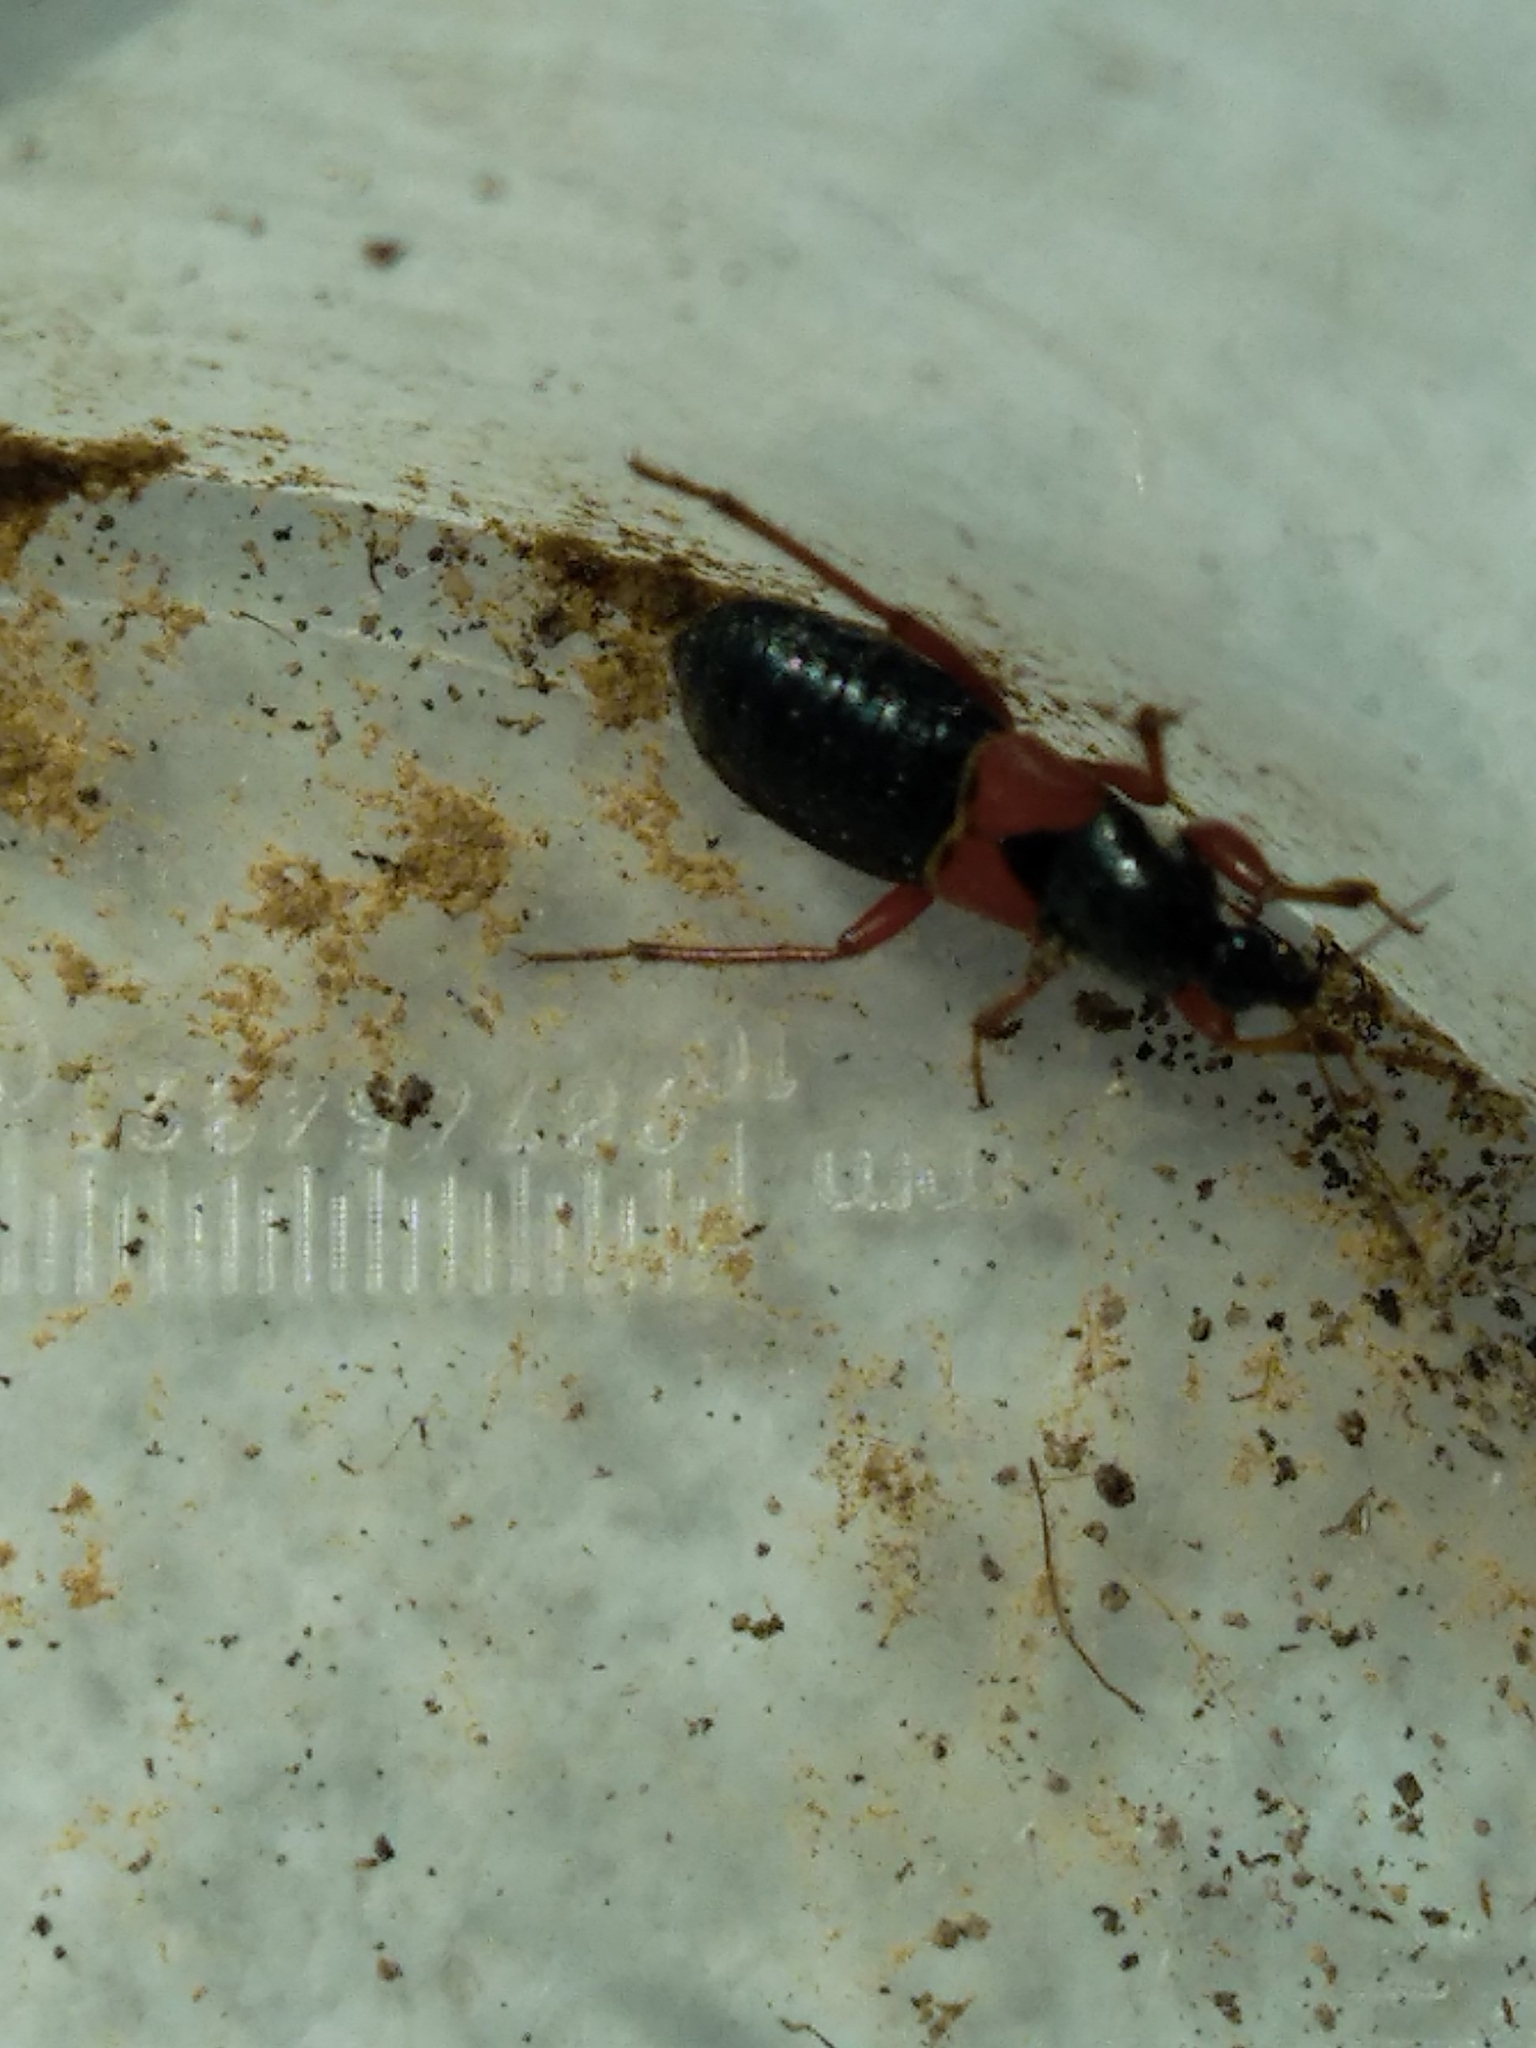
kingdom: Animalia
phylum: Arthropoda
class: Insecta
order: Hemiptera
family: Nabidae
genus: Prostemma
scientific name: Prostemma guttula
